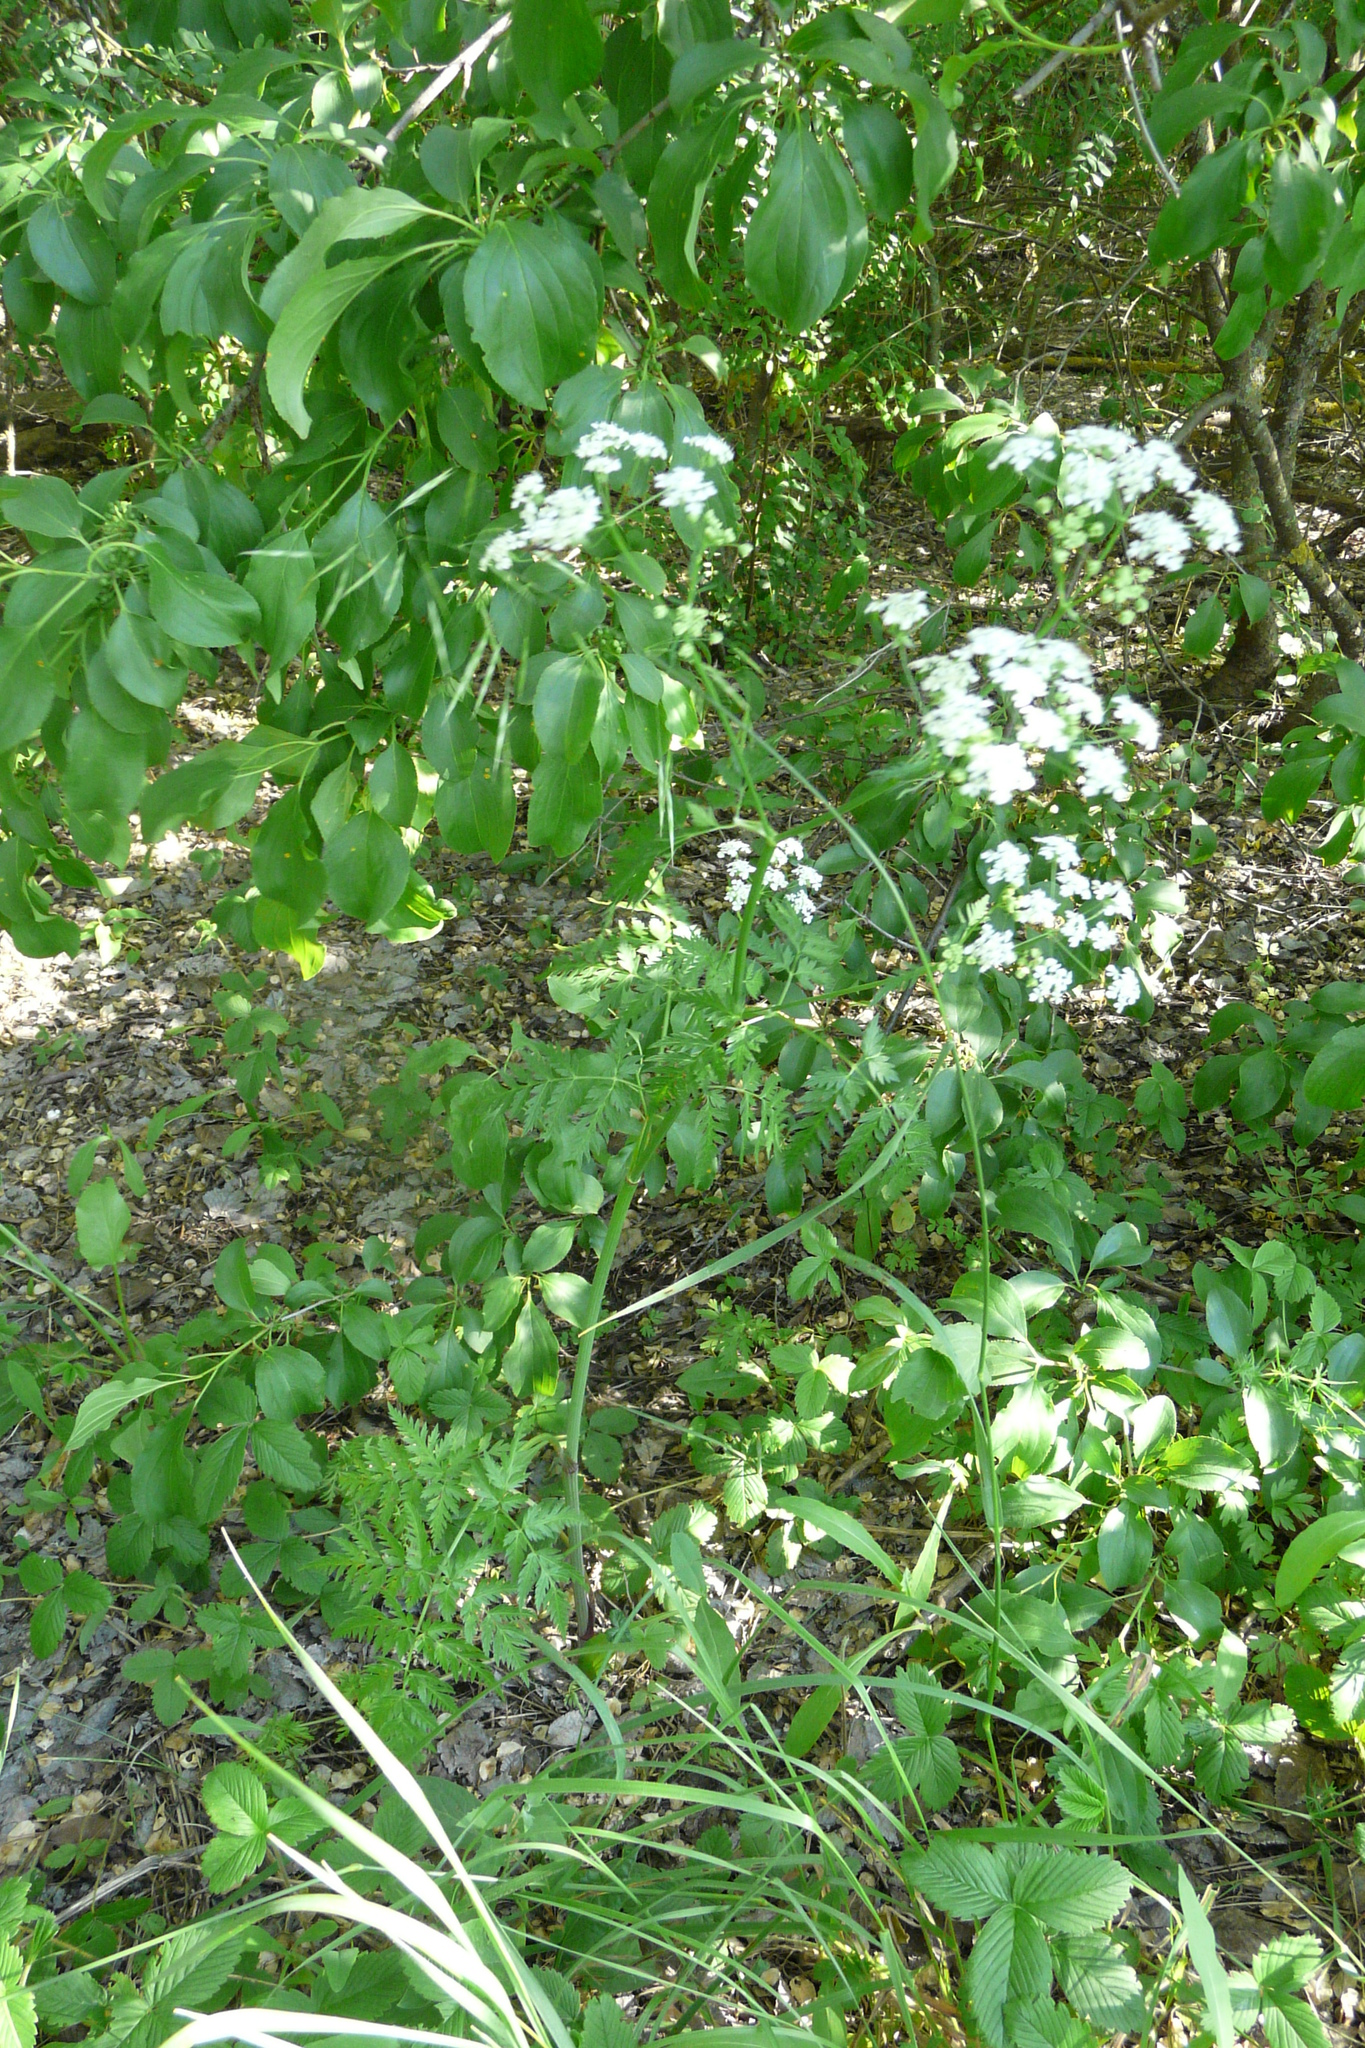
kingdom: Plantae
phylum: Tracheophyta
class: Magnoliopsida
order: Apiales
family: Apiaceae
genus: Anthriscus
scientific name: Anthriscus sylvestris
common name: Cow parsley
